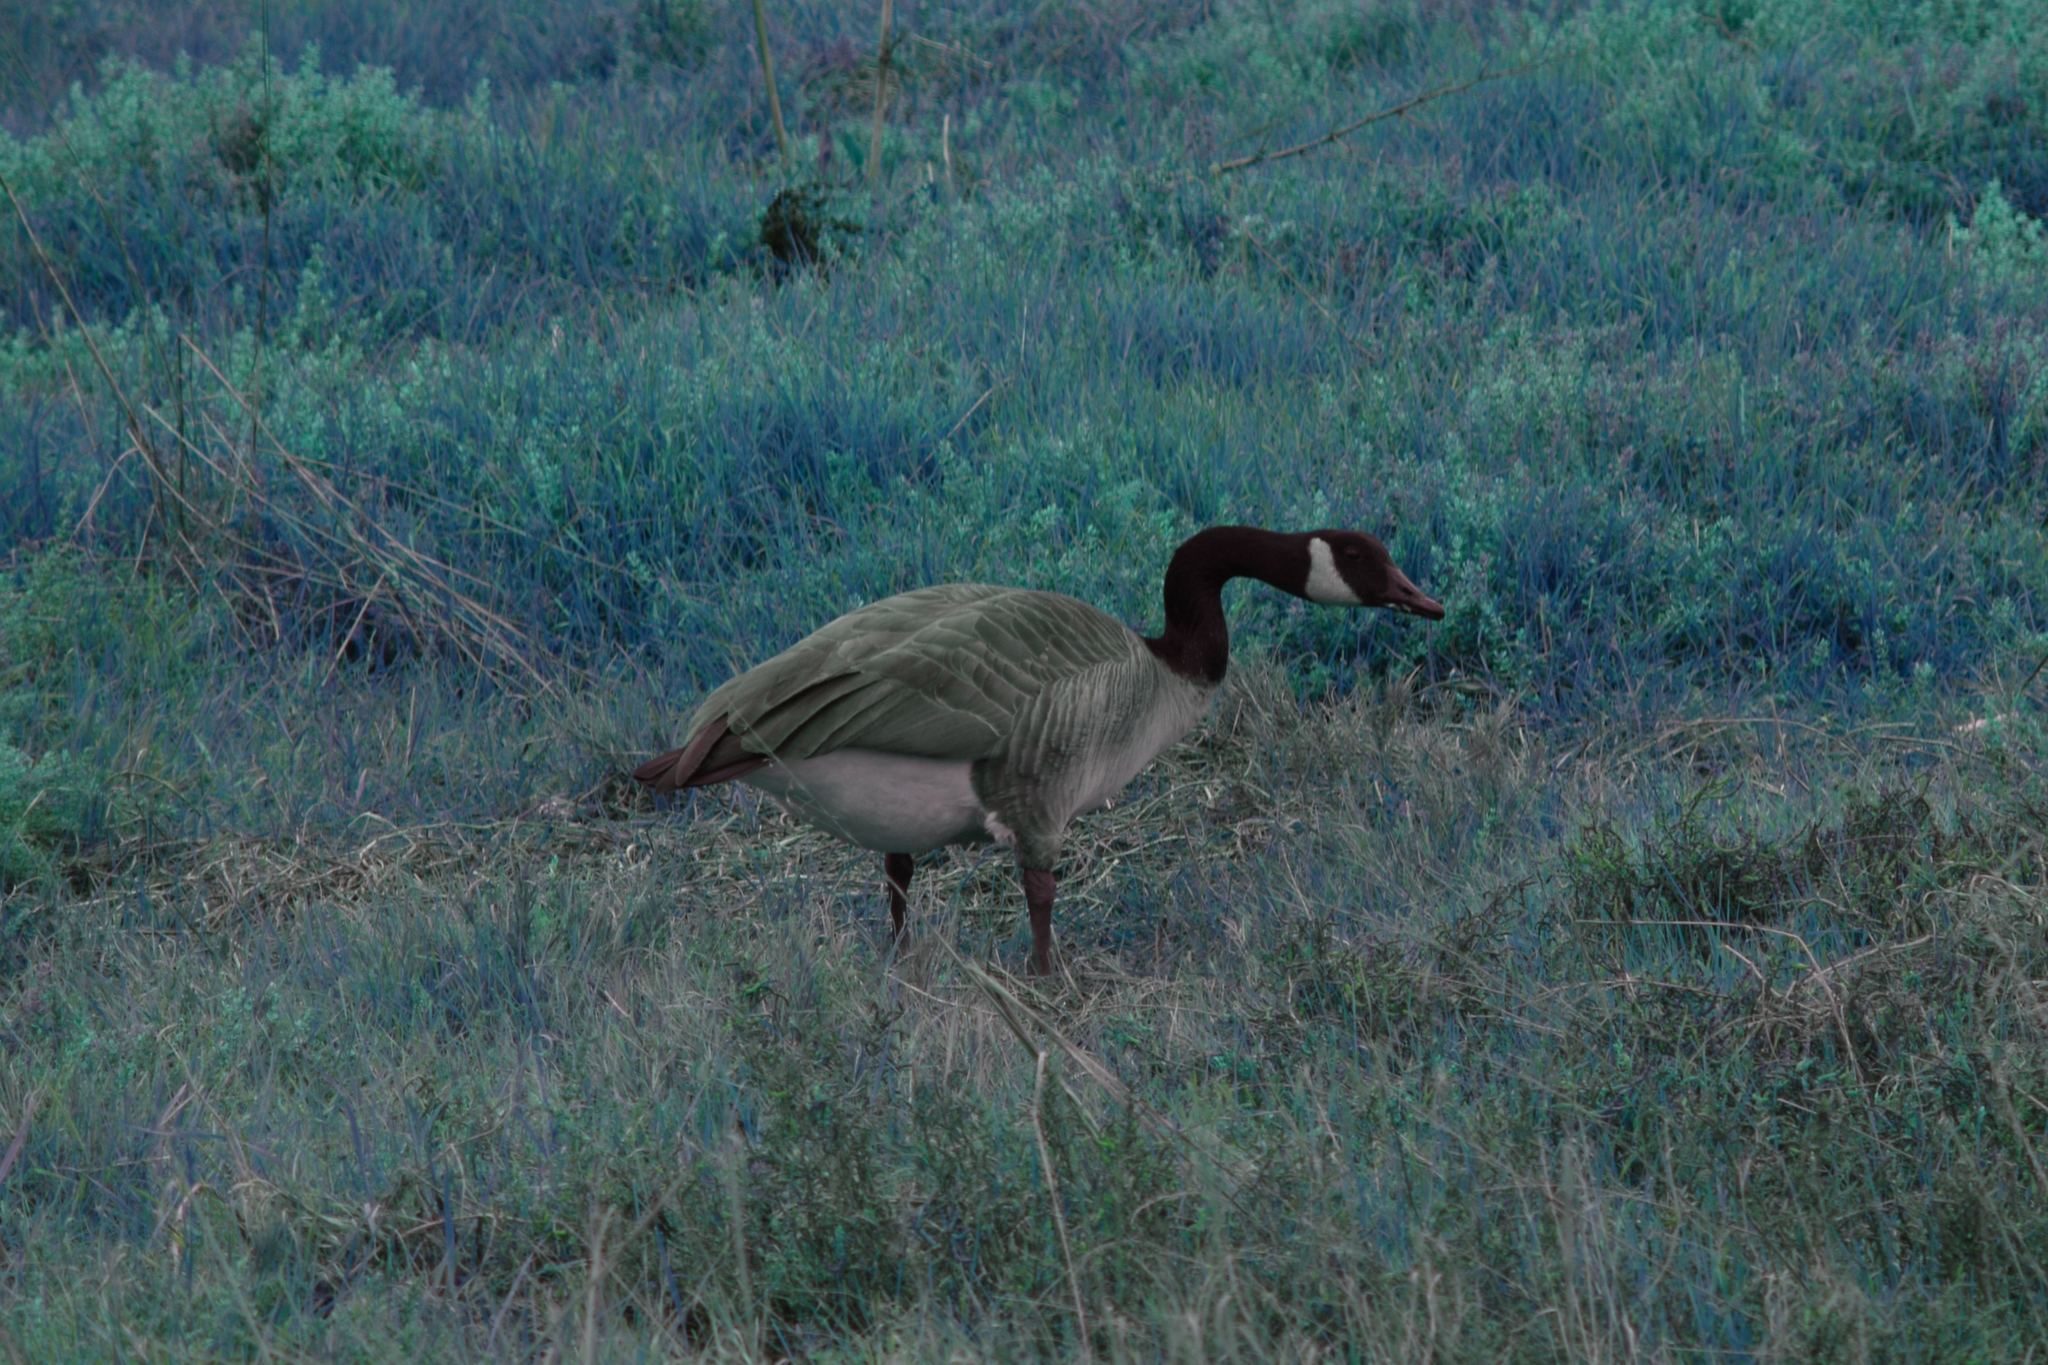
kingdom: Animalia
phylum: Chordata
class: Aves
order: Anseriformes
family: Anatidae
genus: Branta
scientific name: Branta canadensis
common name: Canada goose
